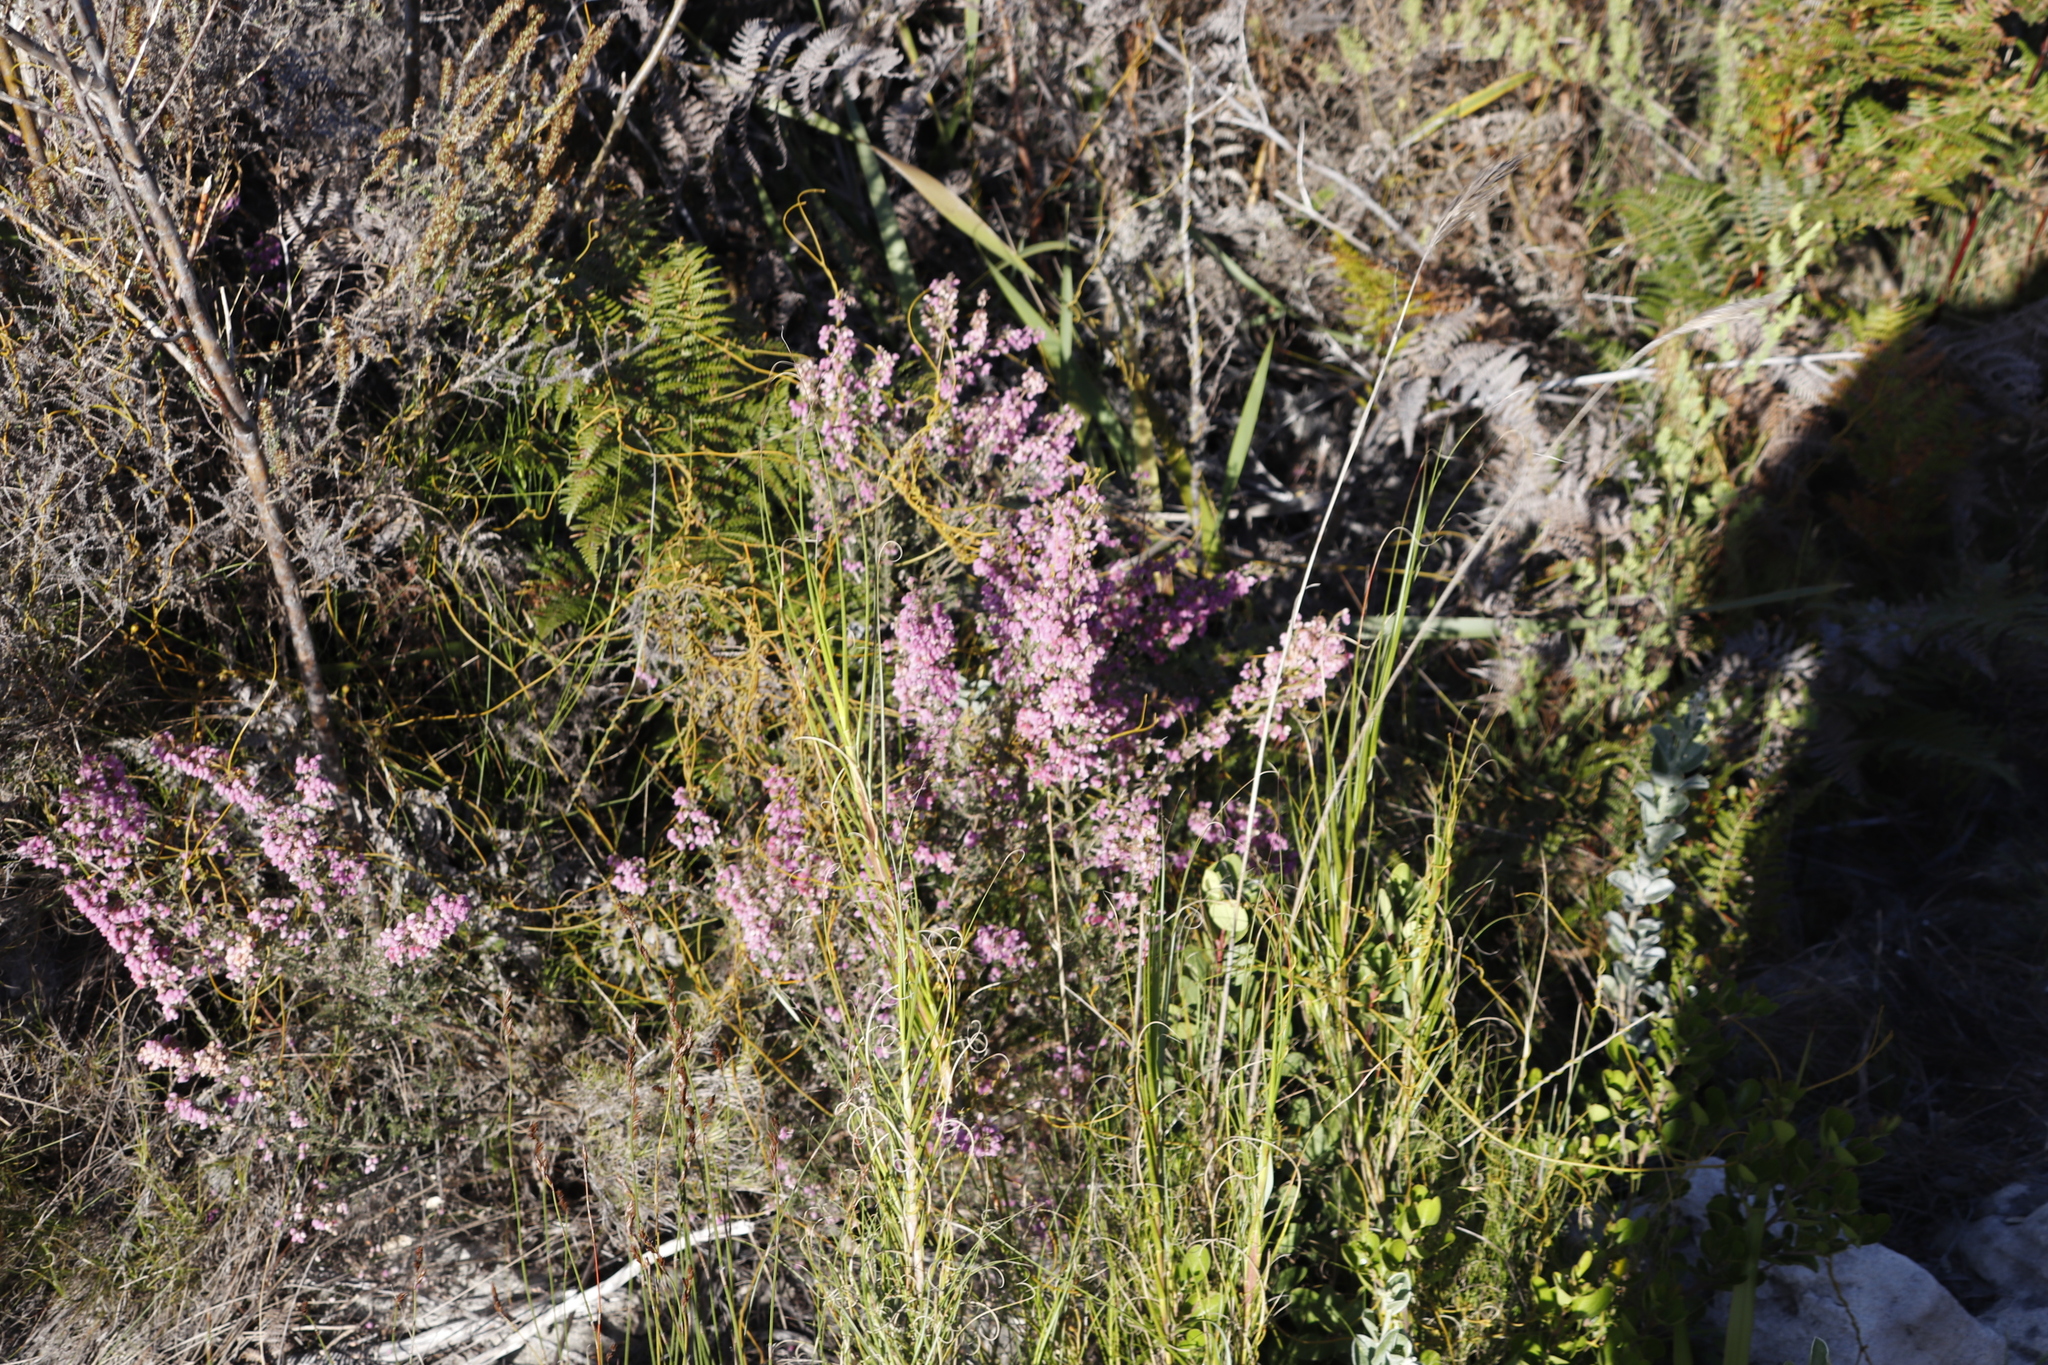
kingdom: Plantae
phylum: Tracheophyta
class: Magnoliopsida
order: Ericales
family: Ericaceae
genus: Erica
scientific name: Erica hirtiflora
